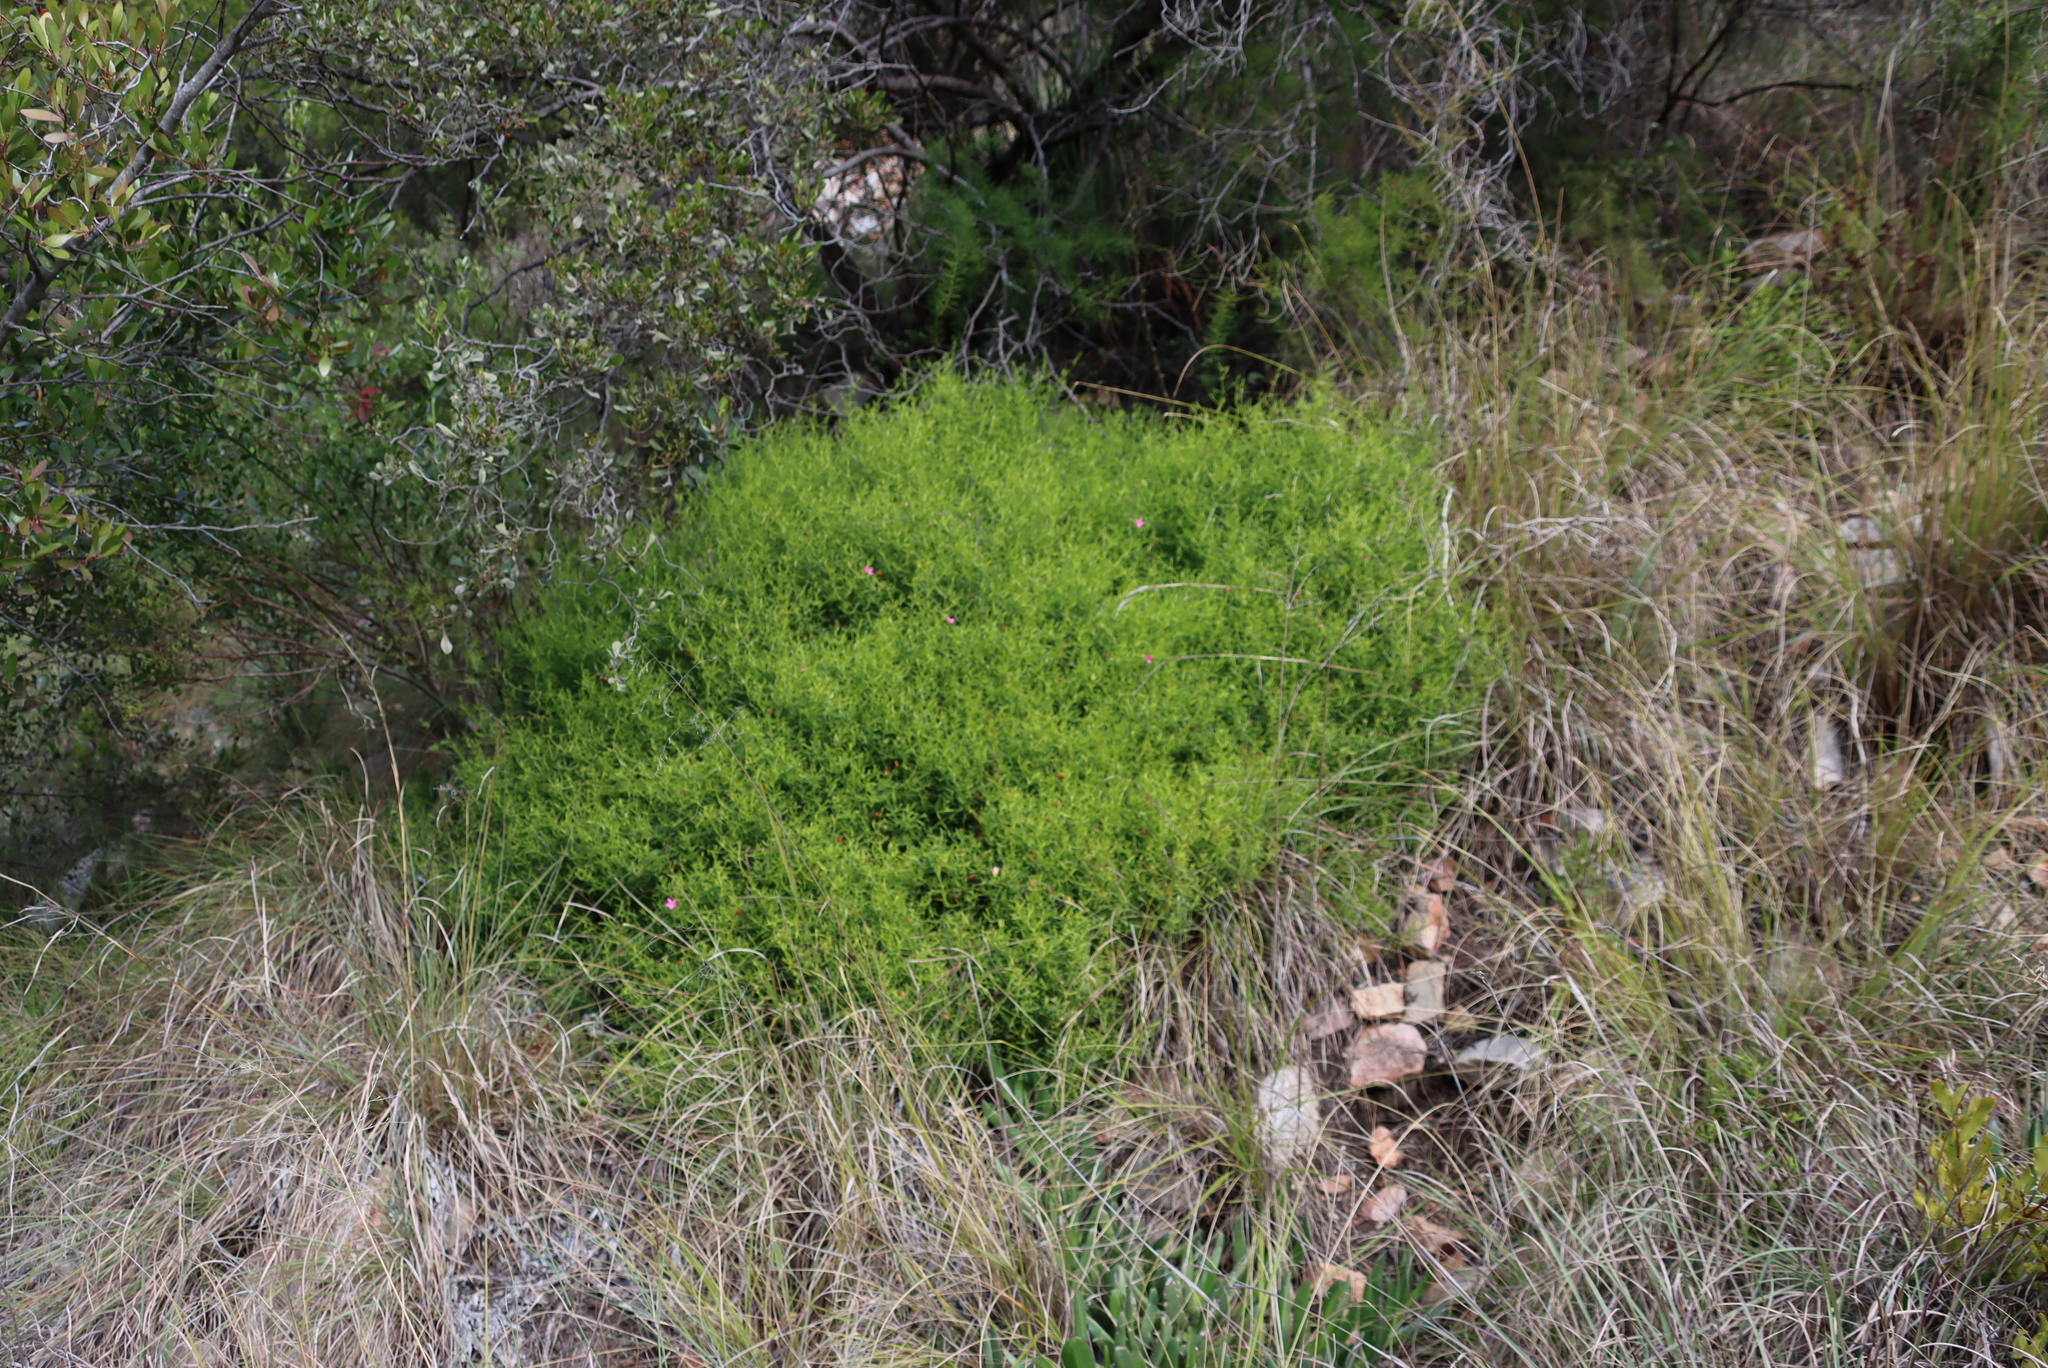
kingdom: Plantae
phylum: Tracheophyta
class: Magnoliopsida
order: Gentianales
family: Gentianaceae
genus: Chironia
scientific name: Chironia baccifera
